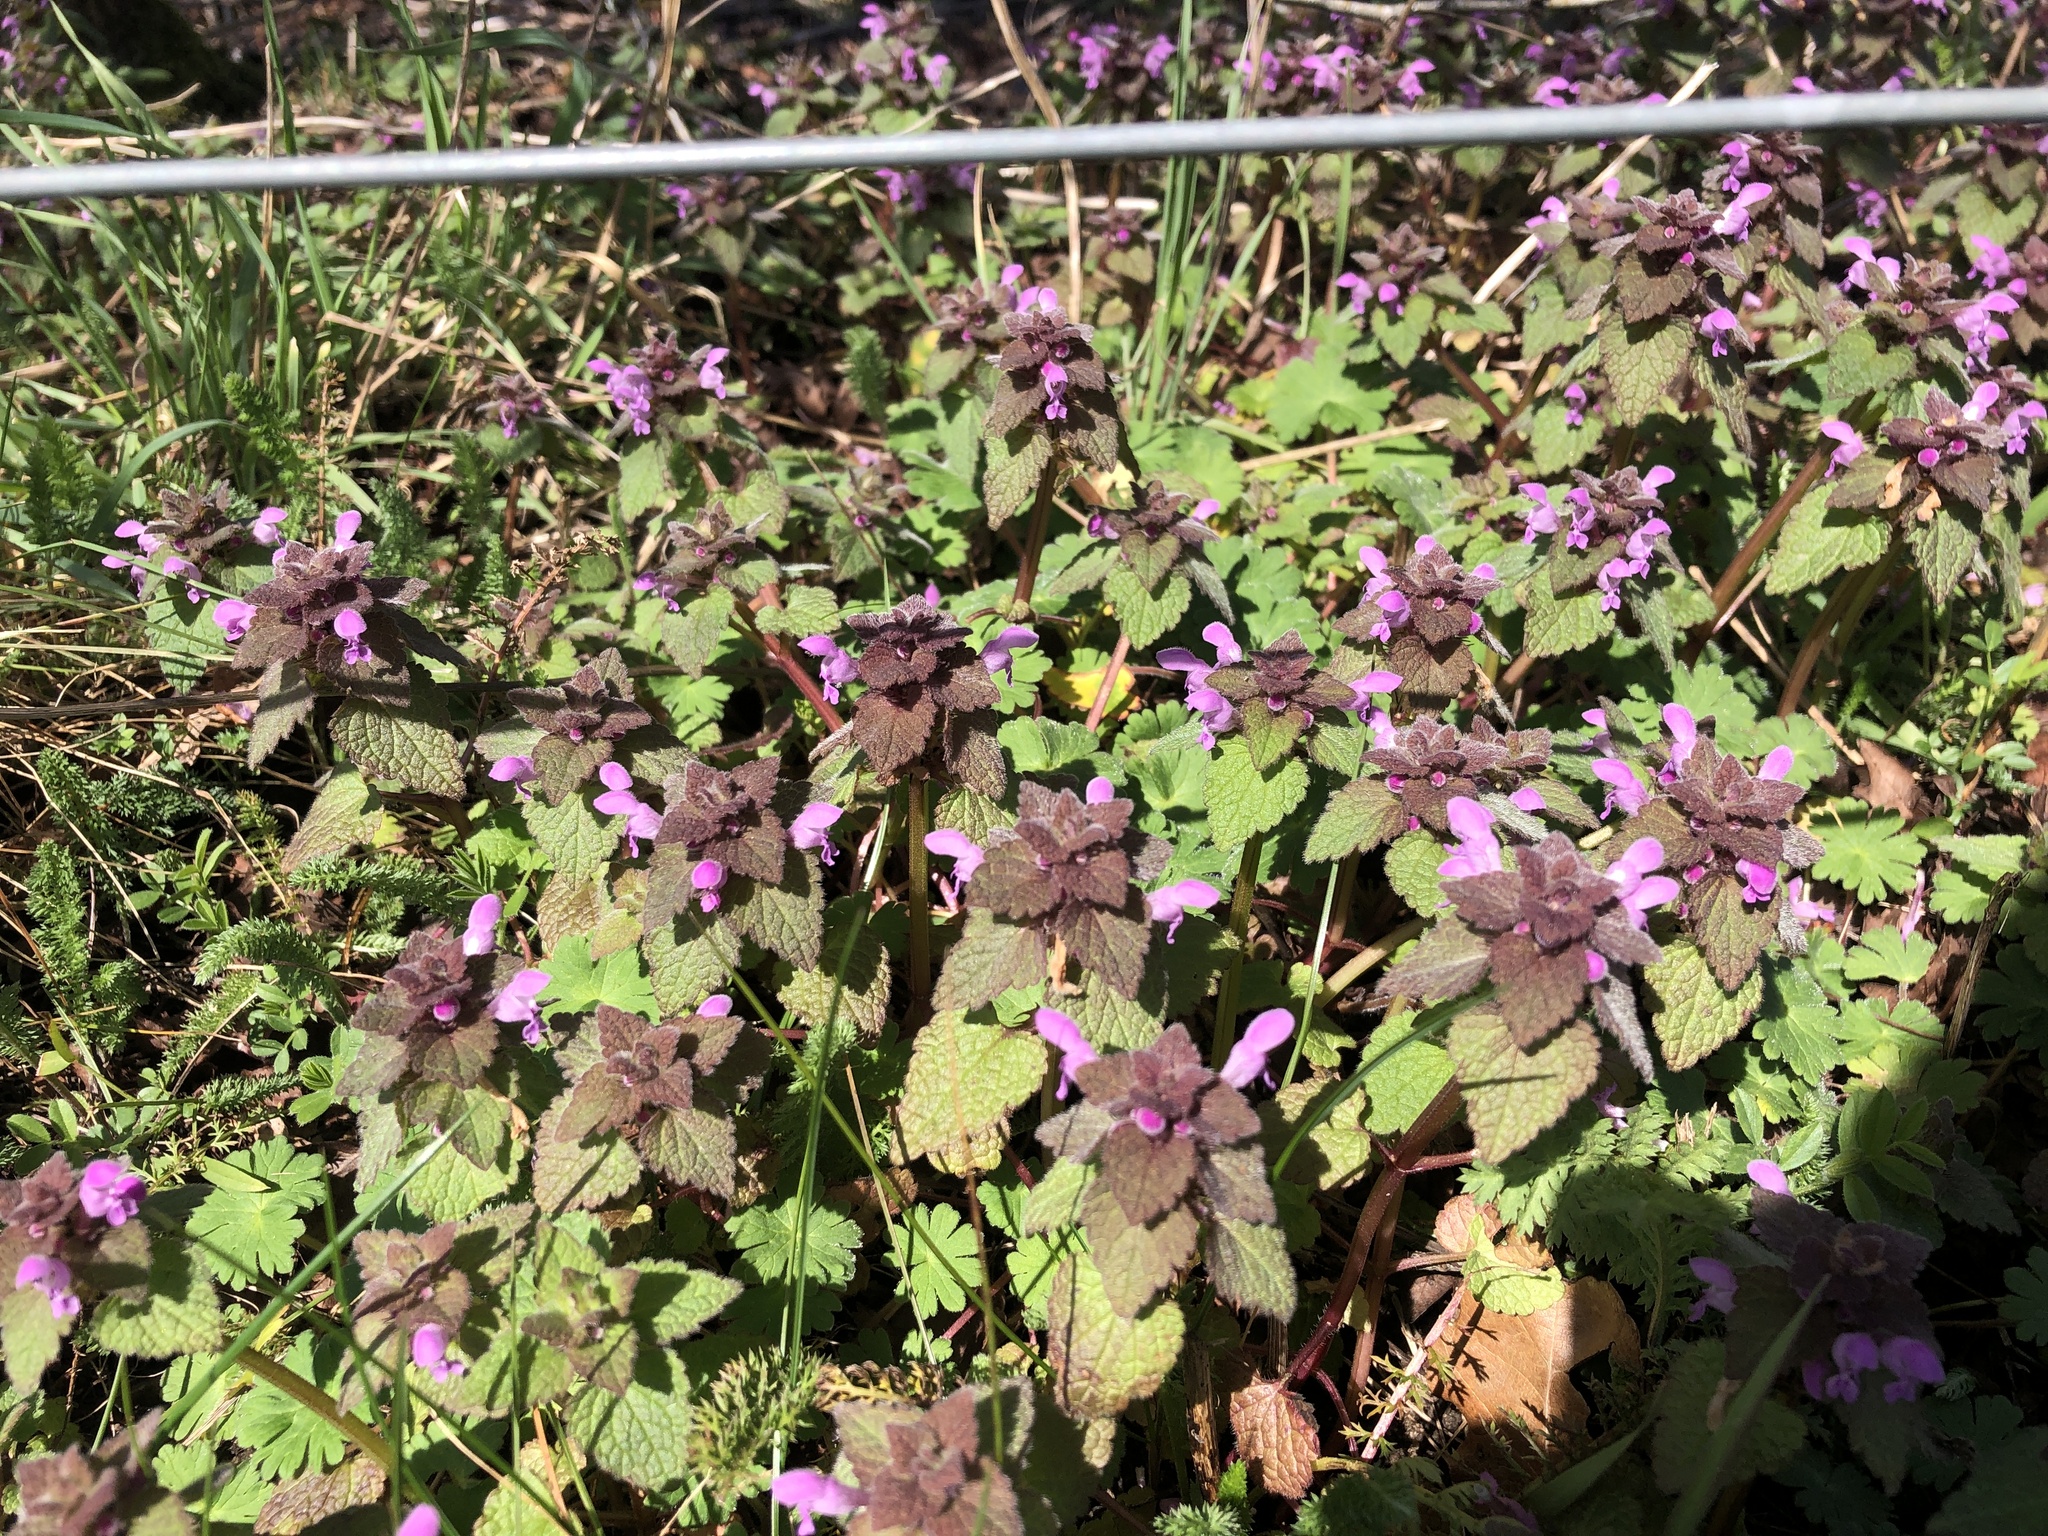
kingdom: Plantae
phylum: Tracheophyta
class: Magnoliopsida
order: Lamiales
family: Lamiaceae
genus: Lamium
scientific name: Lamium purpureum
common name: Red dead-nettle
